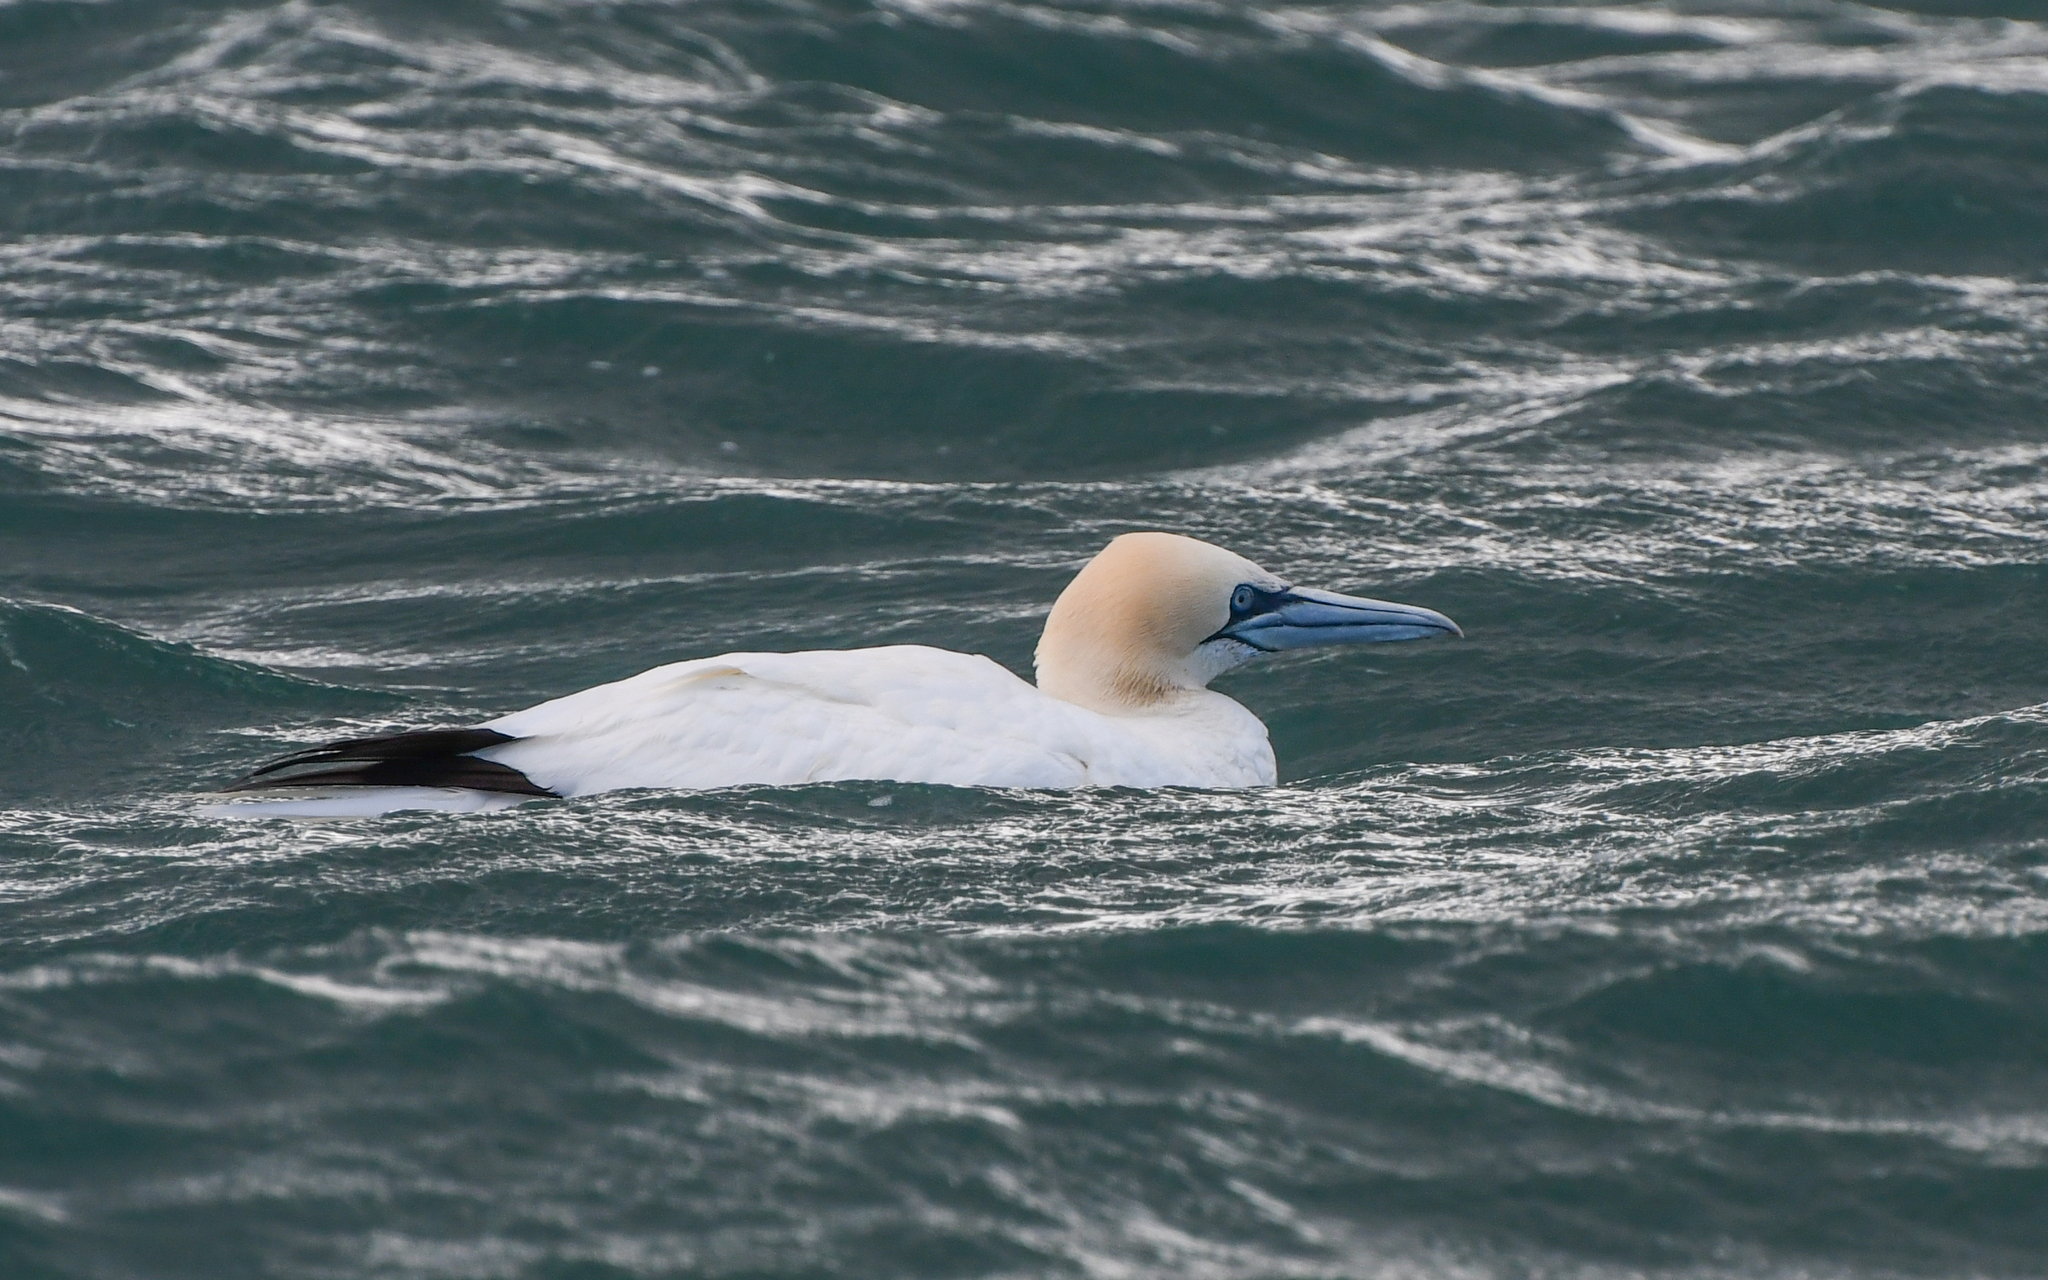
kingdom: Animalia
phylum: Chordata
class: Aves
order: Suliformes
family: Sulidae
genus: Morus
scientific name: Morus bassanus
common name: Northern gannet
